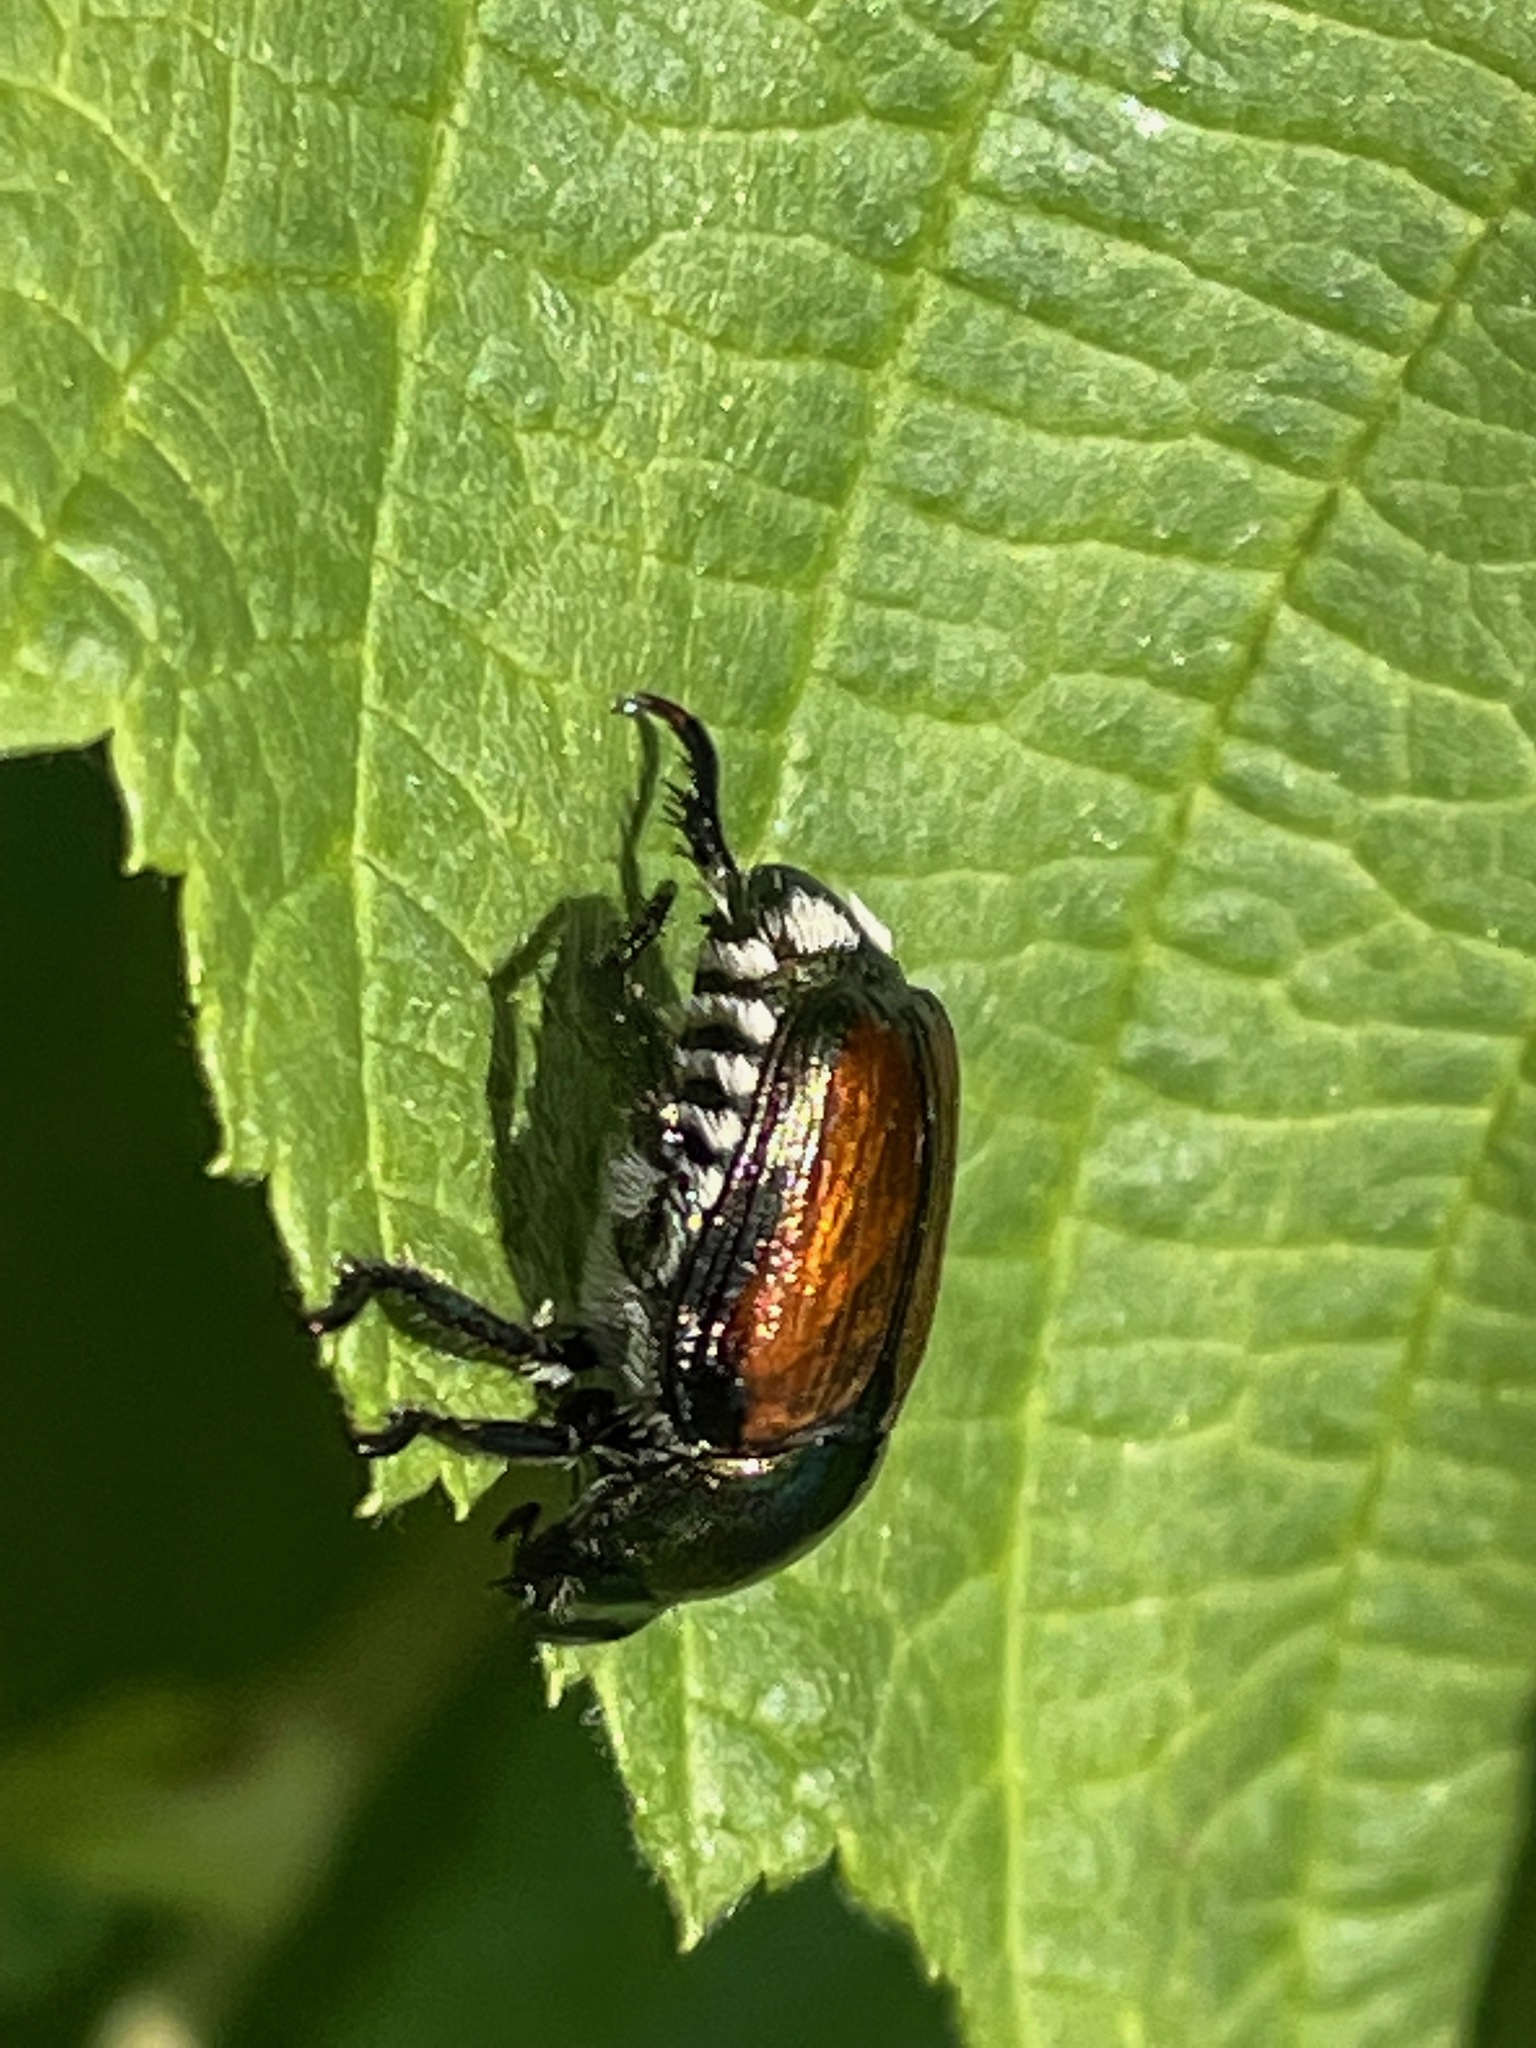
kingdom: Animalia
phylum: Arthropoda
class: Insecta
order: Coleoptera
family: Scarabaeidae
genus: Popillia
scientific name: Popillia japonica
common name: Japanese beetle
